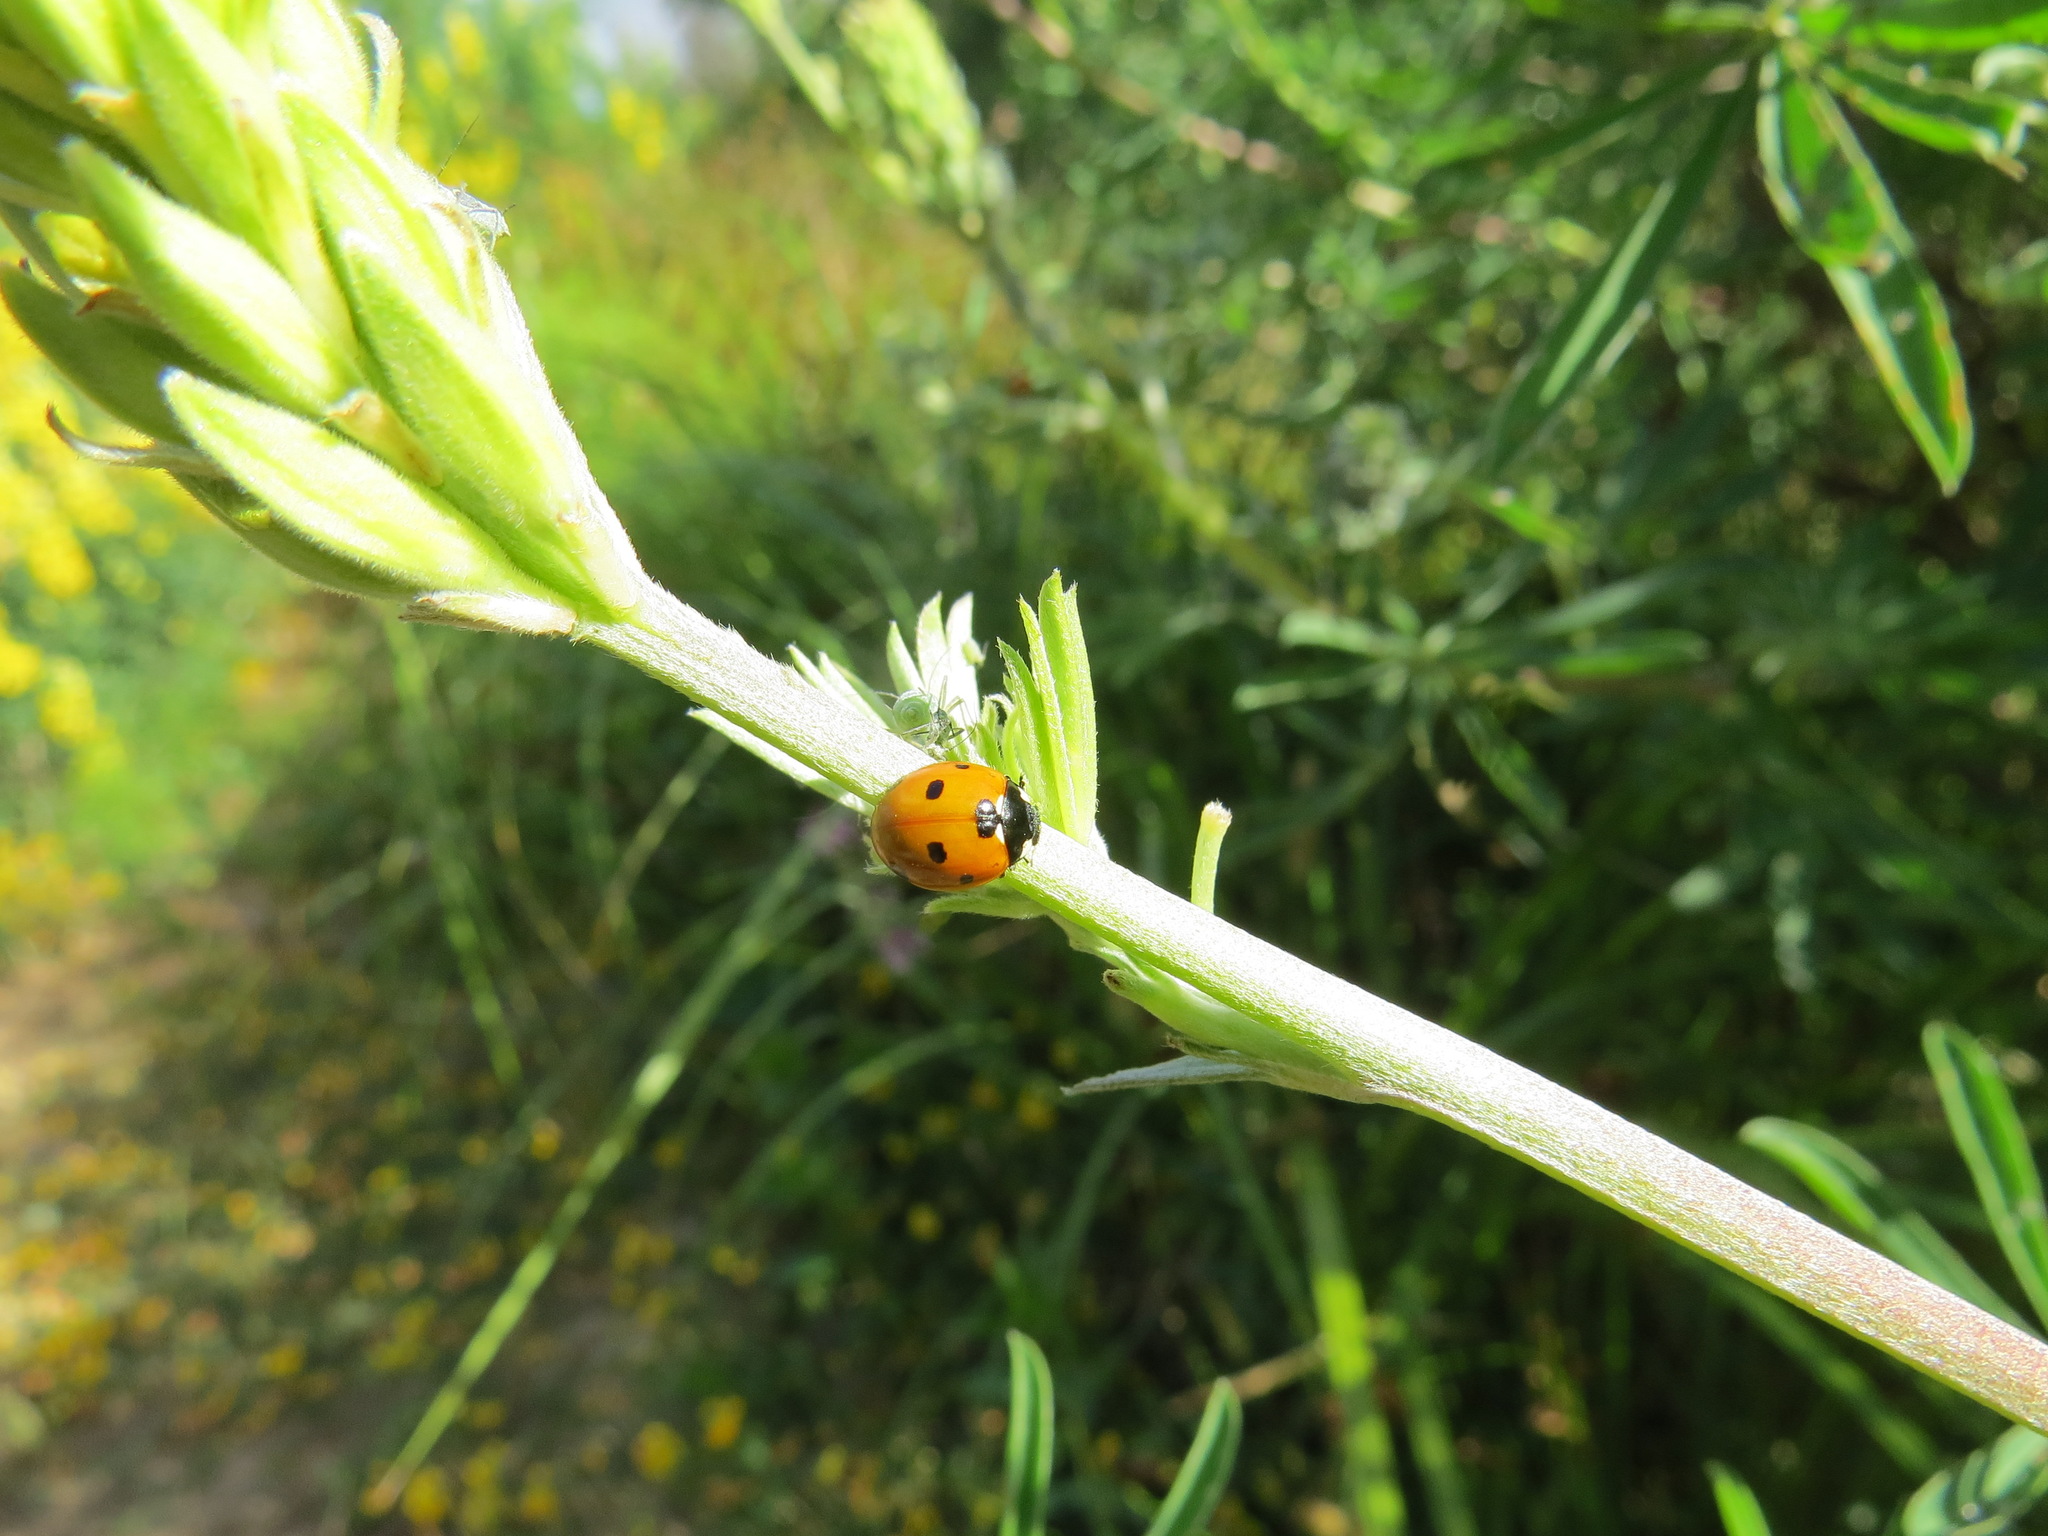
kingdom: Animalia
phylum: Arthropoda
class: Insecta
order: Coleoptera
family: Coccinellidae
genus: Coccinella
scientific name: Coccinella septempunctata
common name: Sevenspotted lady beetle
